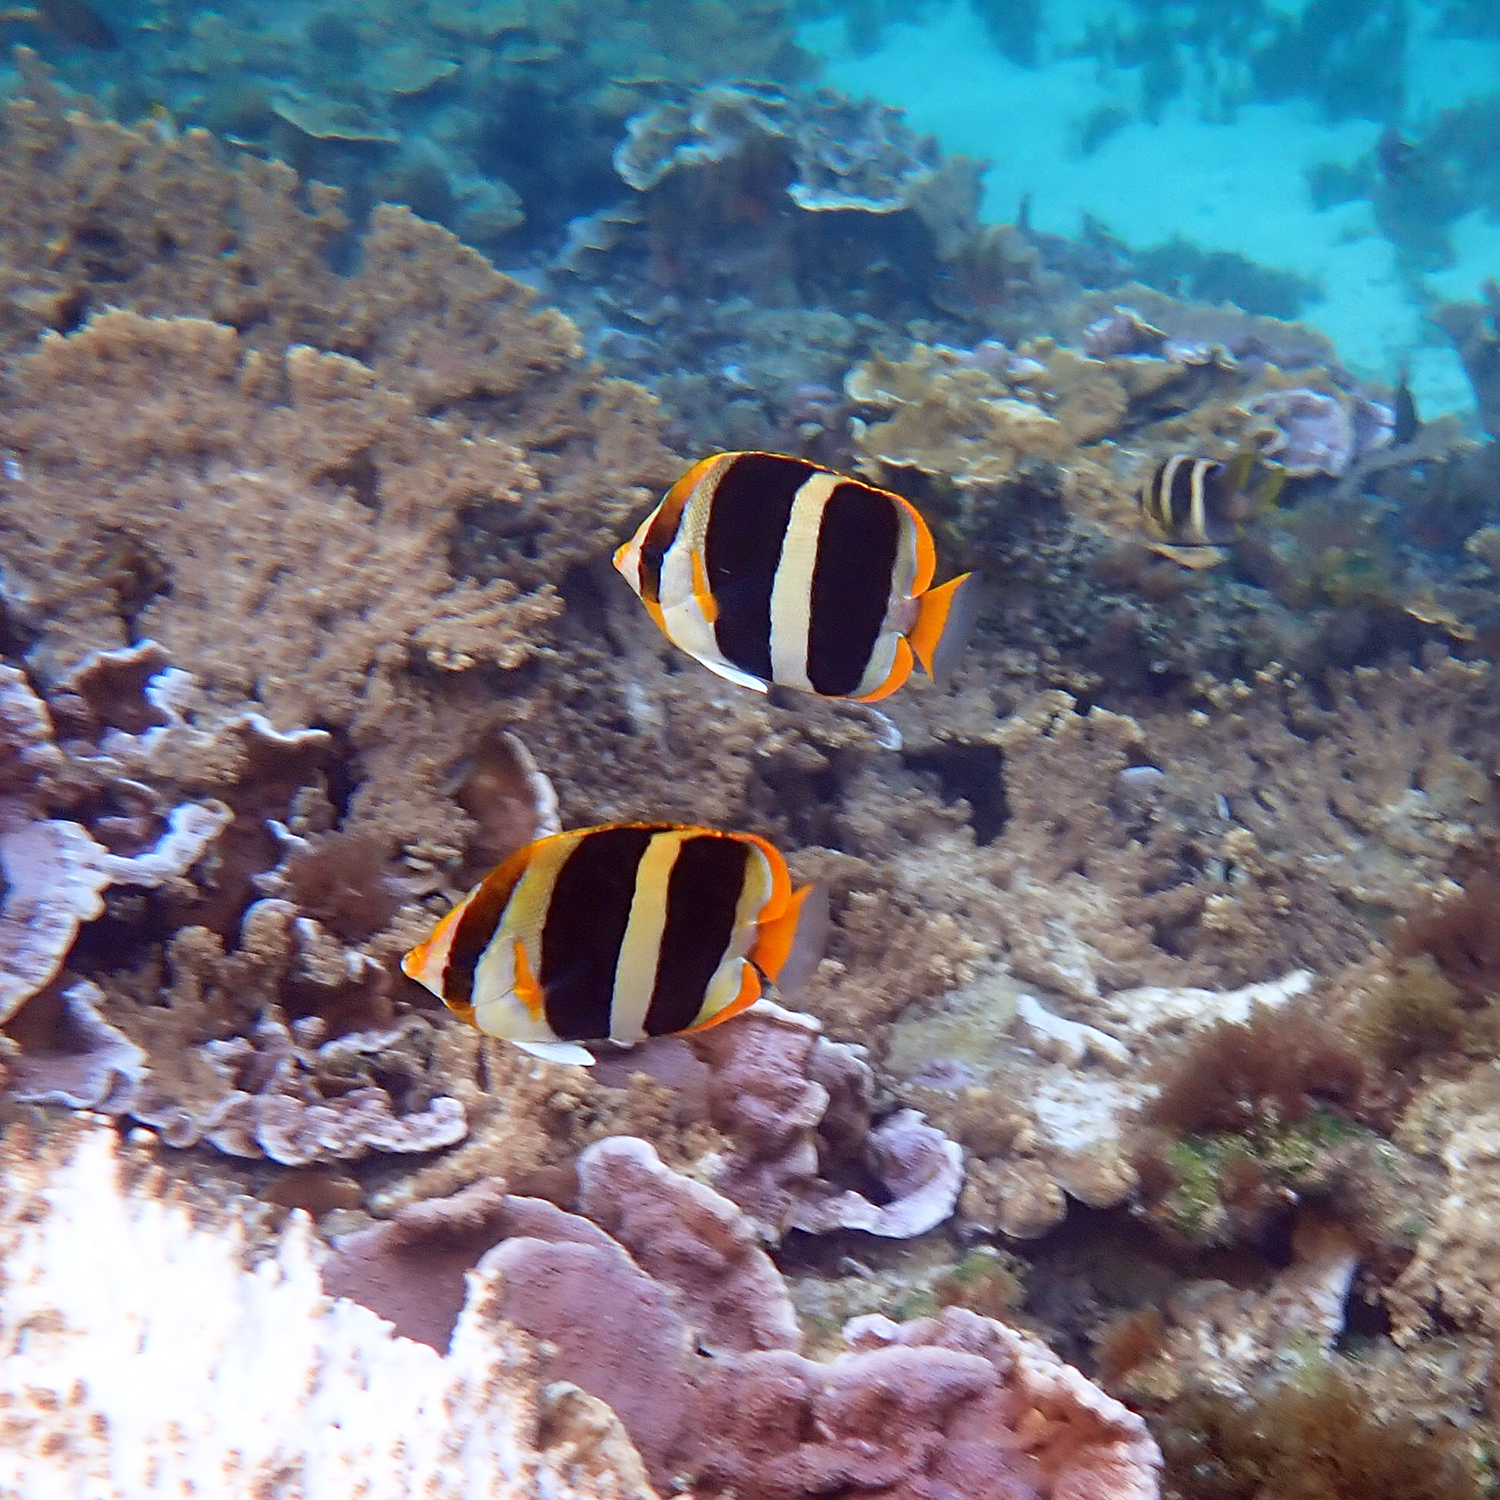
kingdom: Animalia
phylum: Chordata
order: Perciformes
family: Chaetodontidae
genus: Chaetodon
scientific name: Chaetodon tricinctus
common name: Three-striped butterflyfish
